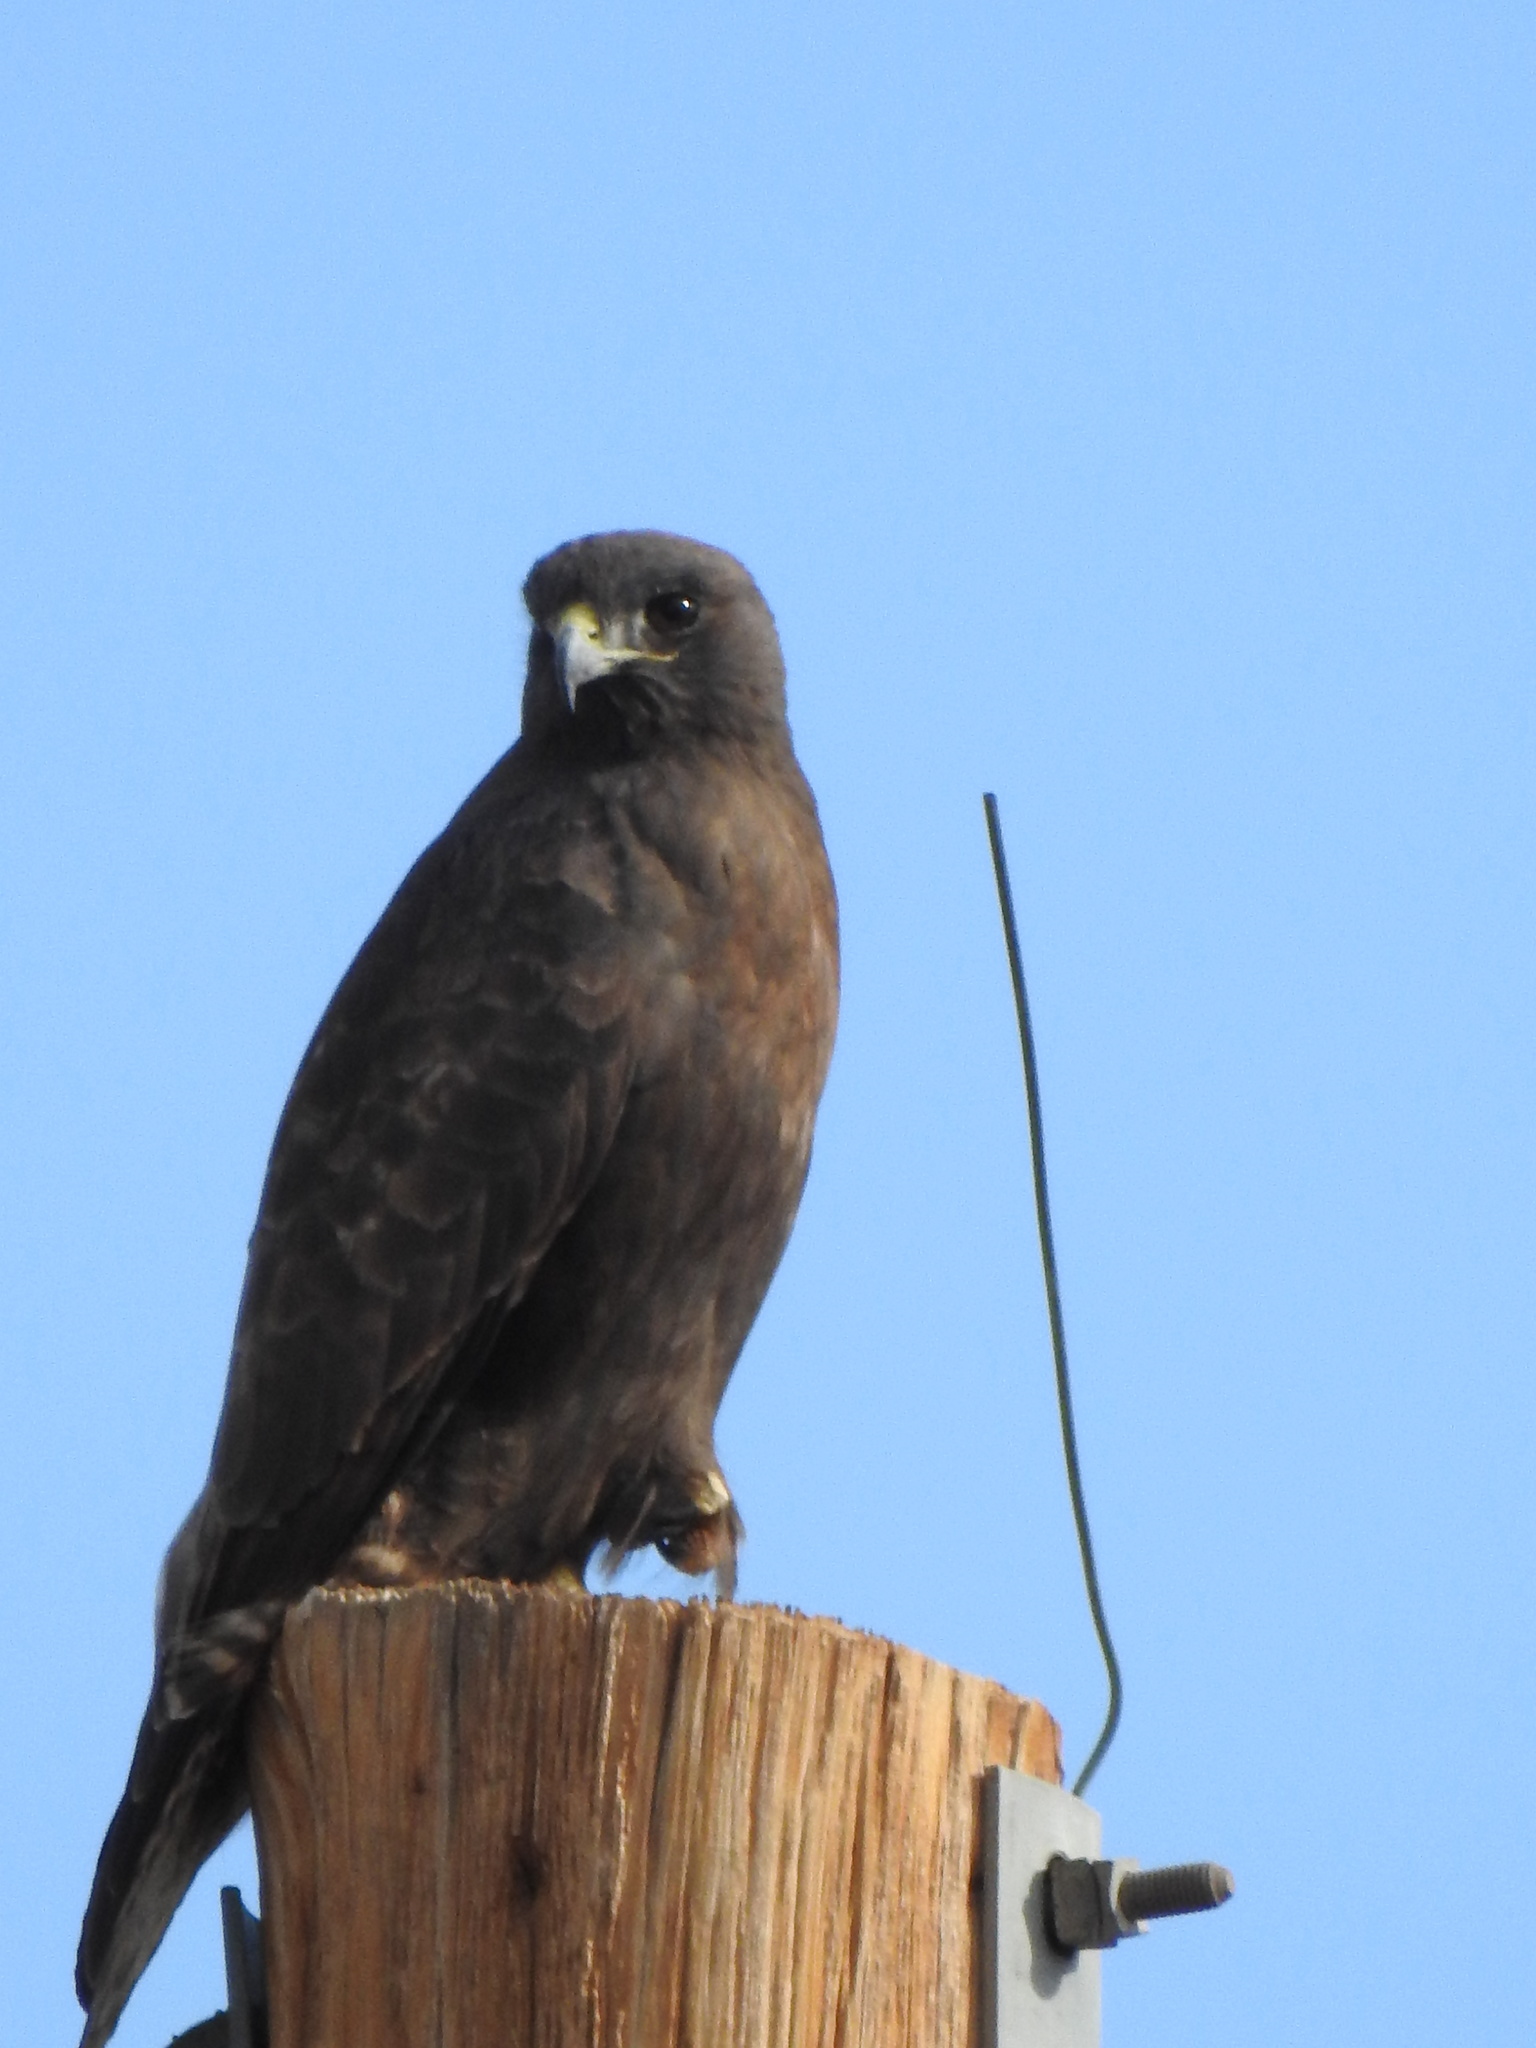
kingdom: Animalia
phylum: Chordata
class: Aves
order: Accipitriformes
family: Accipitridae
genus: Buteo
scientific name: Buteo jamaicensis
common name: Red-tailed hawk
